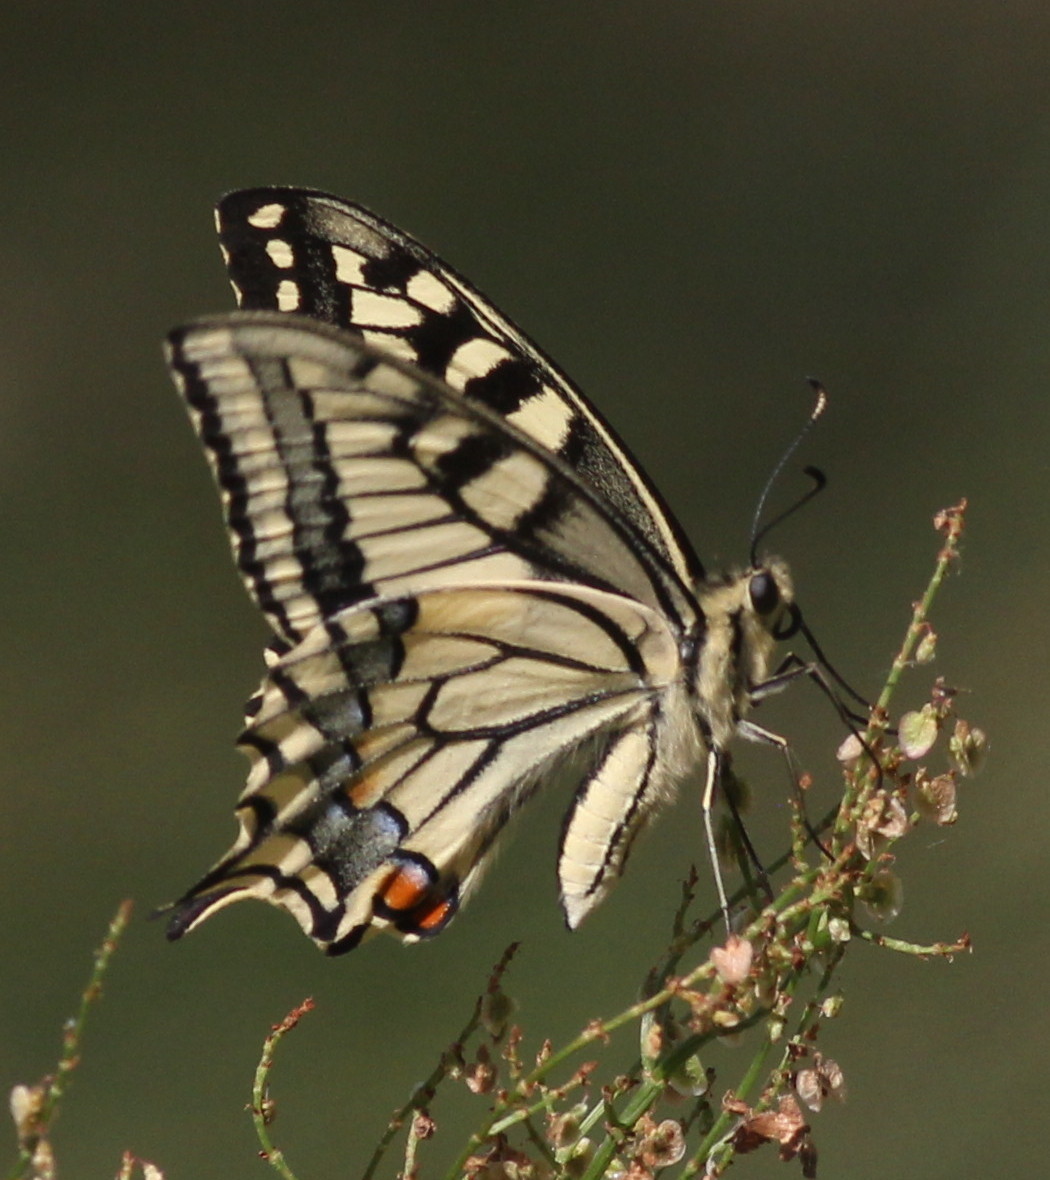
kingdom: Animalia
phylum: Arthropoda
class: Insecta
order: Lepidoptera
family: Papilionidae
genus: Papilio
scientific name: Papilio machaon
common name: Swallowtail
